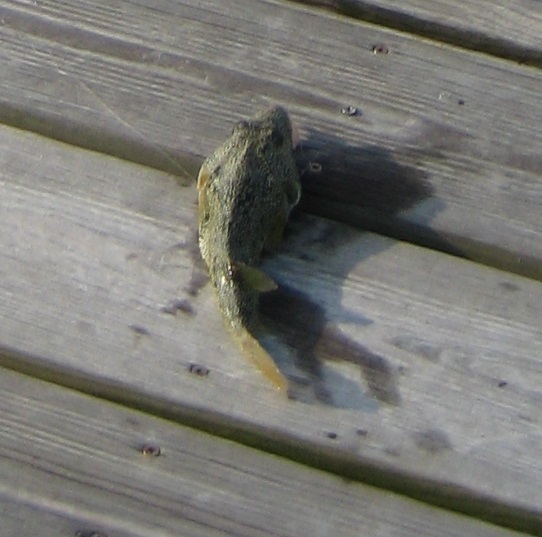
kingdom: Animalia
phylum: Chordata
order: Tetraodontiformes
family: Tetraodontidae
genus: Sphoeroides
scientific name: Sphoeroides nephelus
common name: Southern puffer
